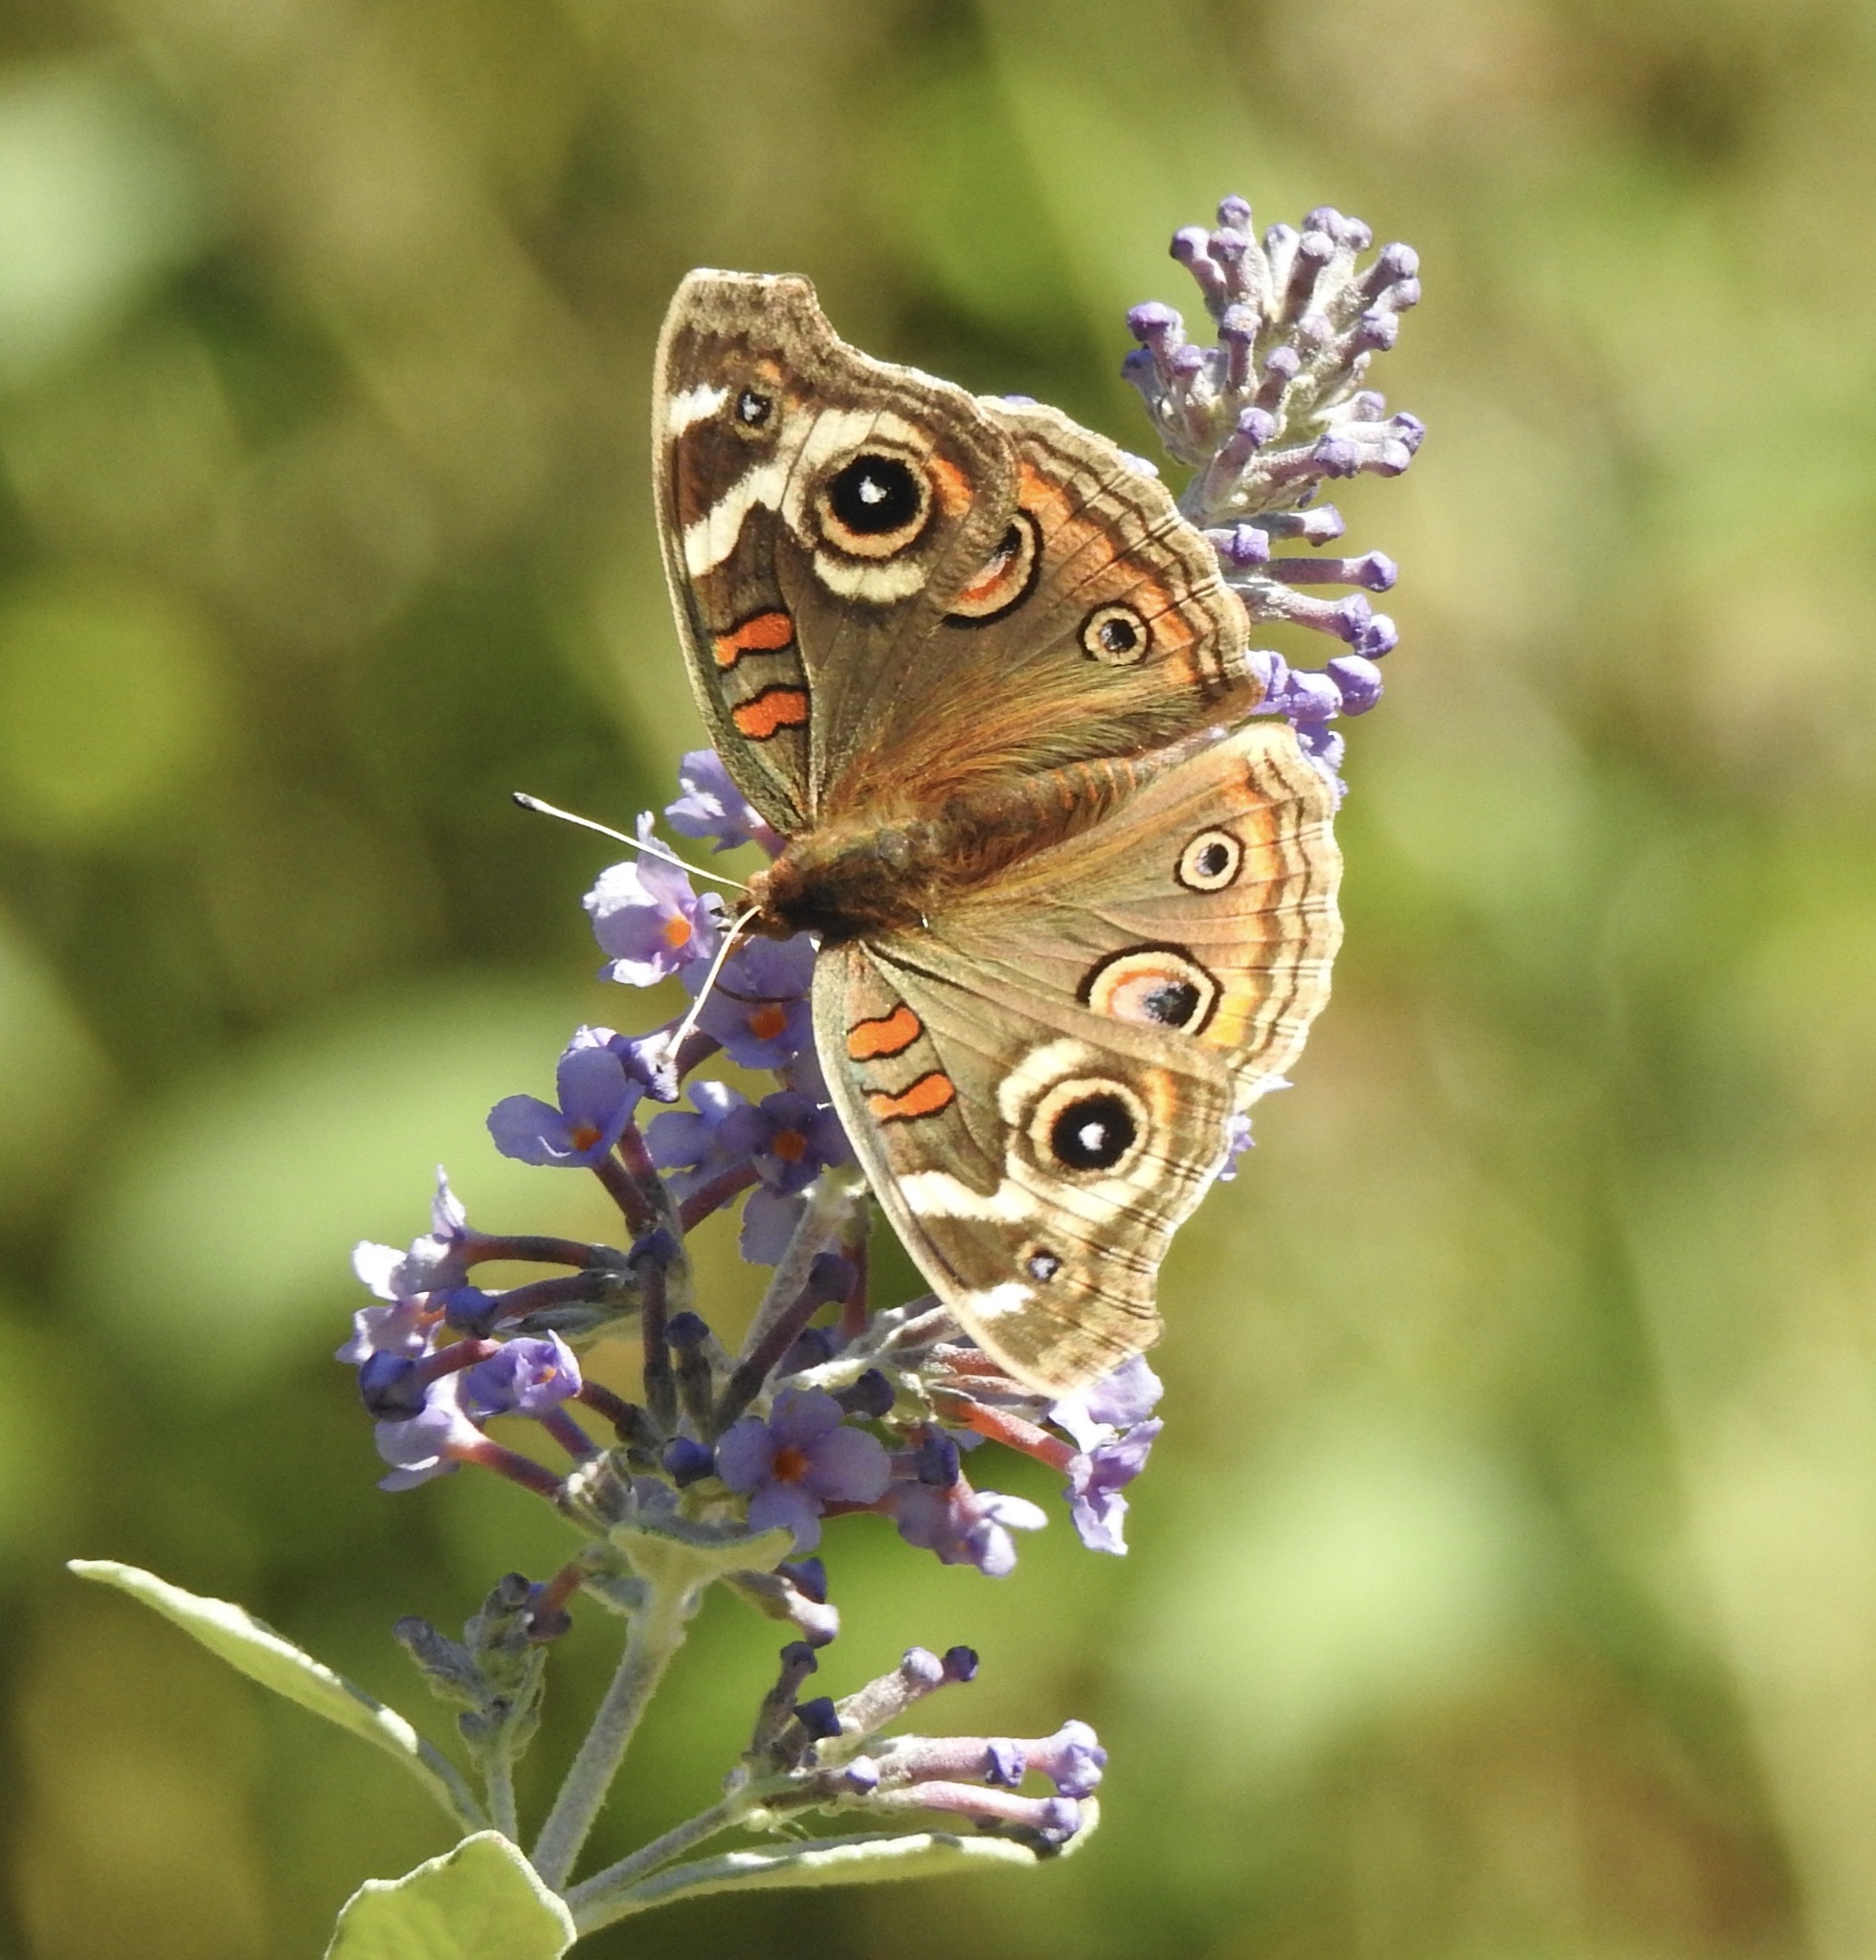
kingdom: Animalia
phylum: Arthropoda
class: Insecta
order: Lepidoptera
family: Nymphalidae
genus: Junonia
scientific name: Junonia grisea
